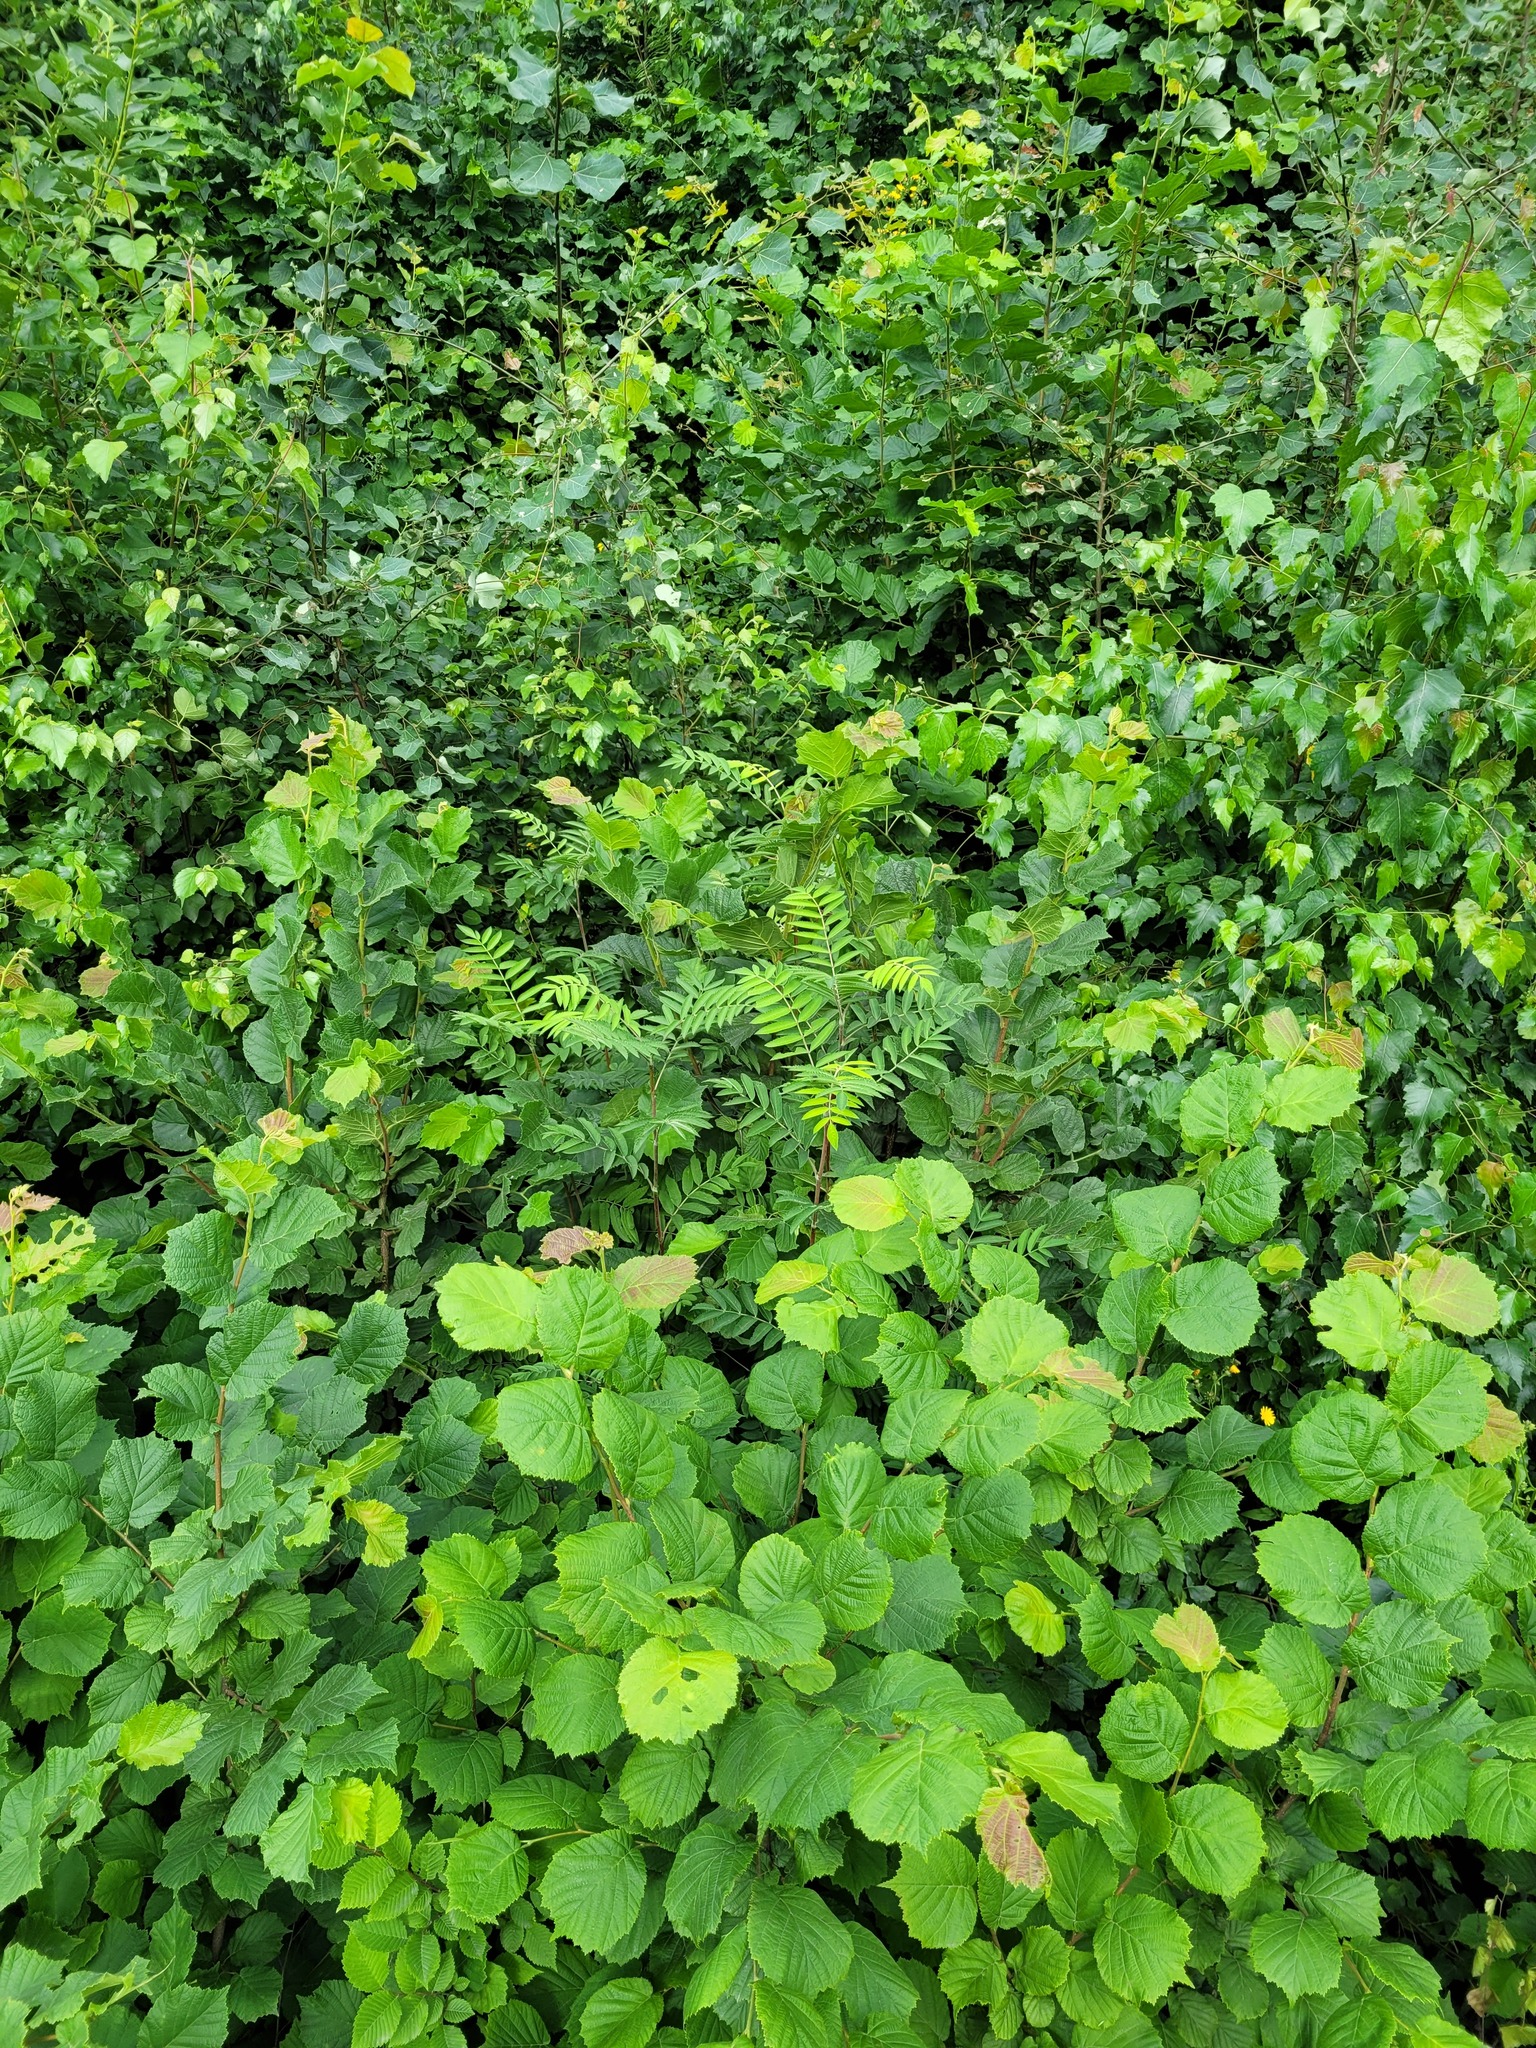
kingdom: Plantae
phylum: Tracheophyta
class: Magnoliopsida
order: Rosales
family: Rosaceae
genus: Sorbus
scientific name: Sorbus aucuparia
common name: Rowan
